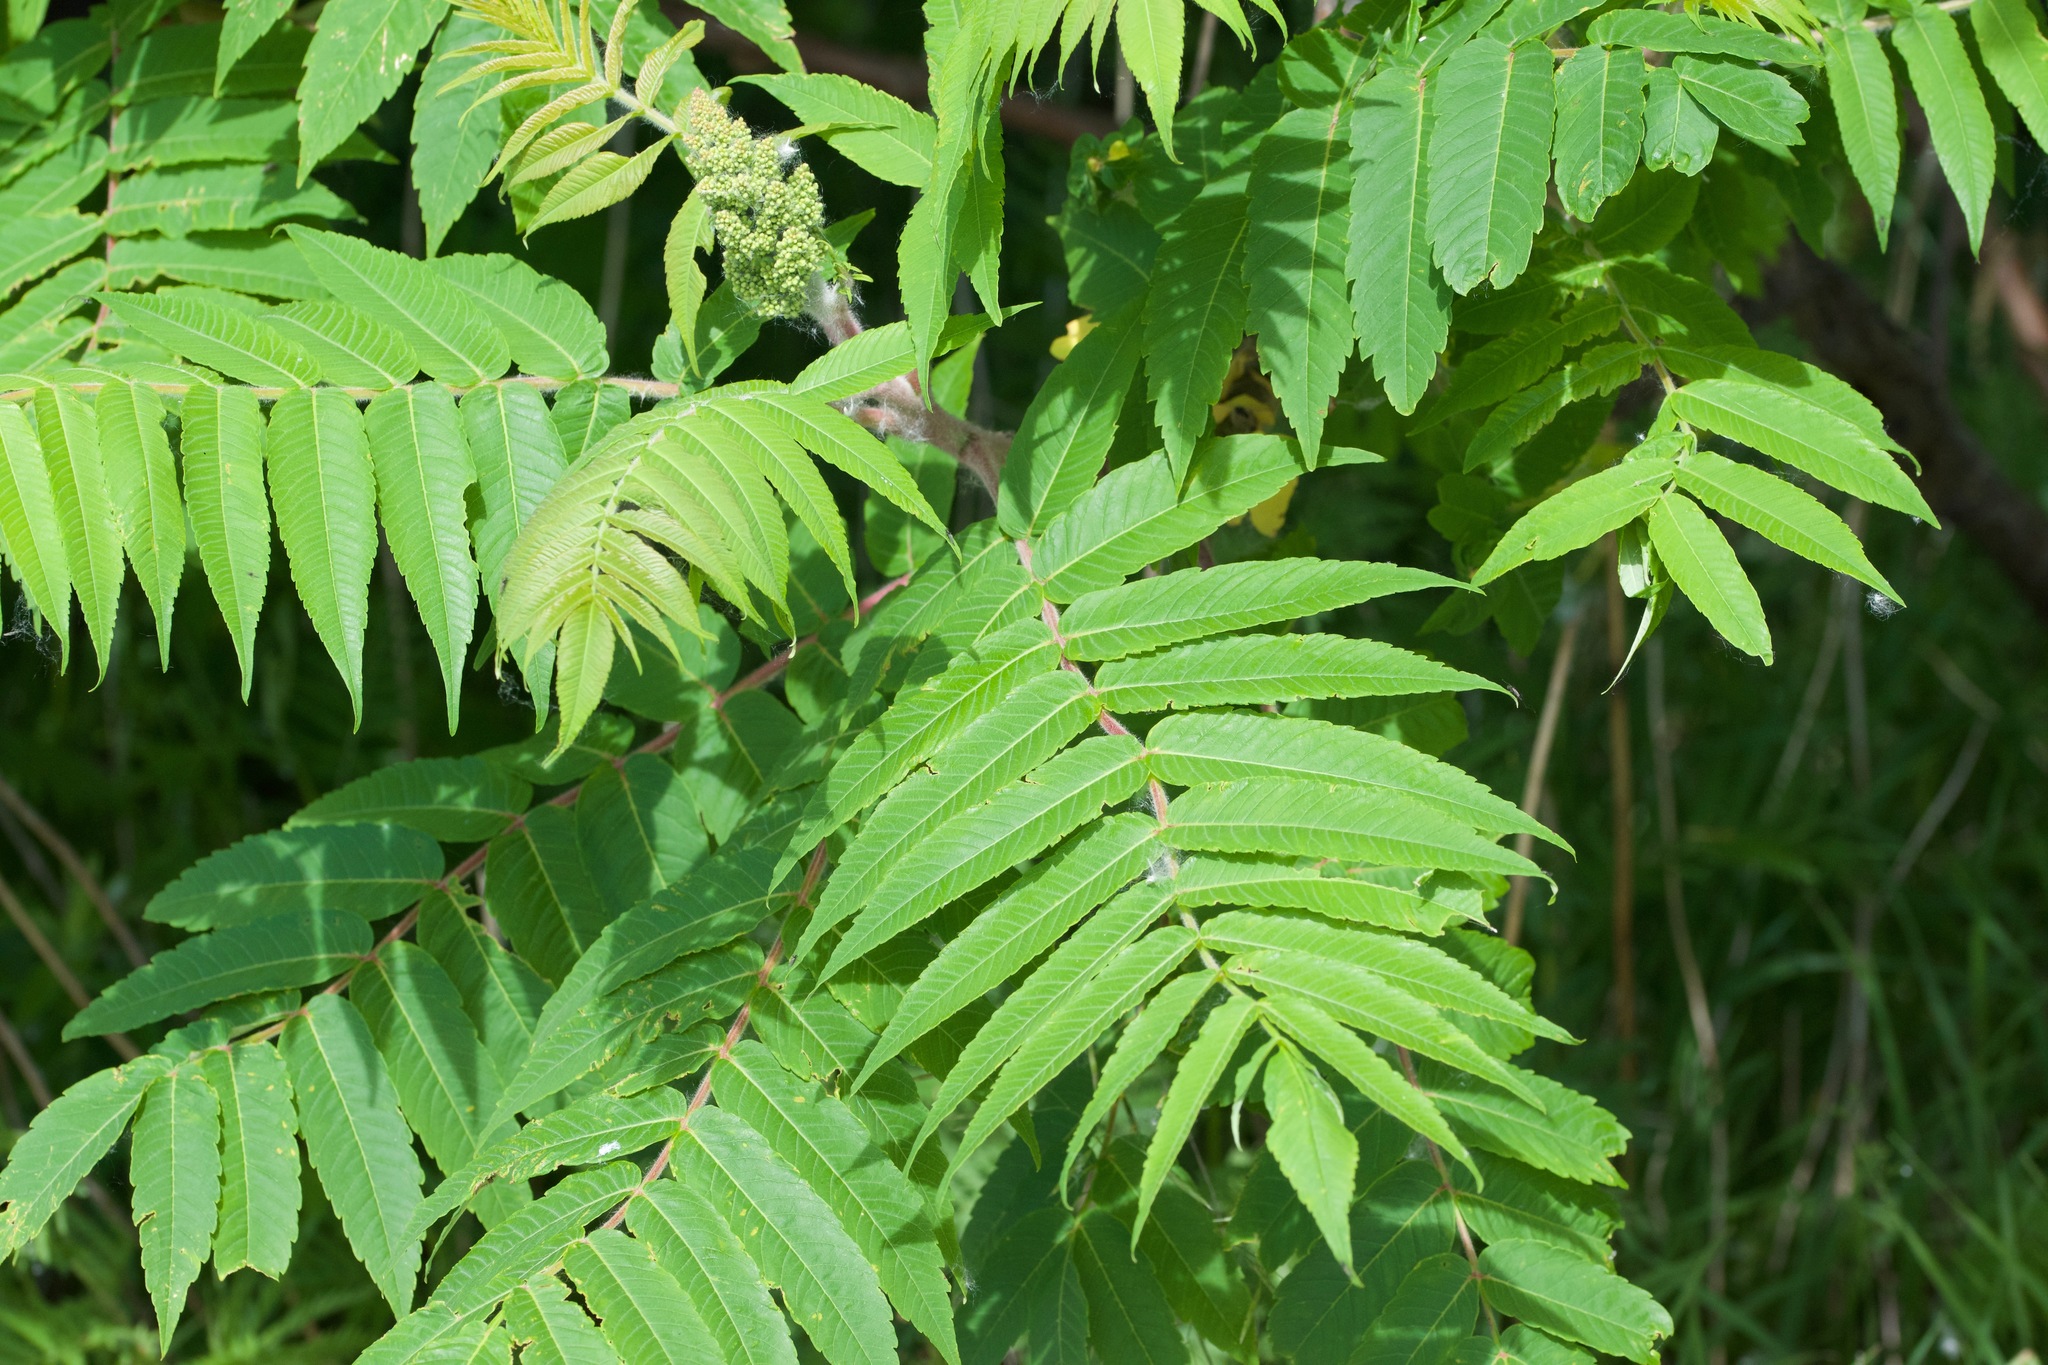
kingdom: Plantae
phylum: Tracheophyta
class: Magnoliopsida
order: Sapindales
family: Anacardiaceae
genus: Rhus
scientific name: Rhus typhina
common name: Staghorn sumac
